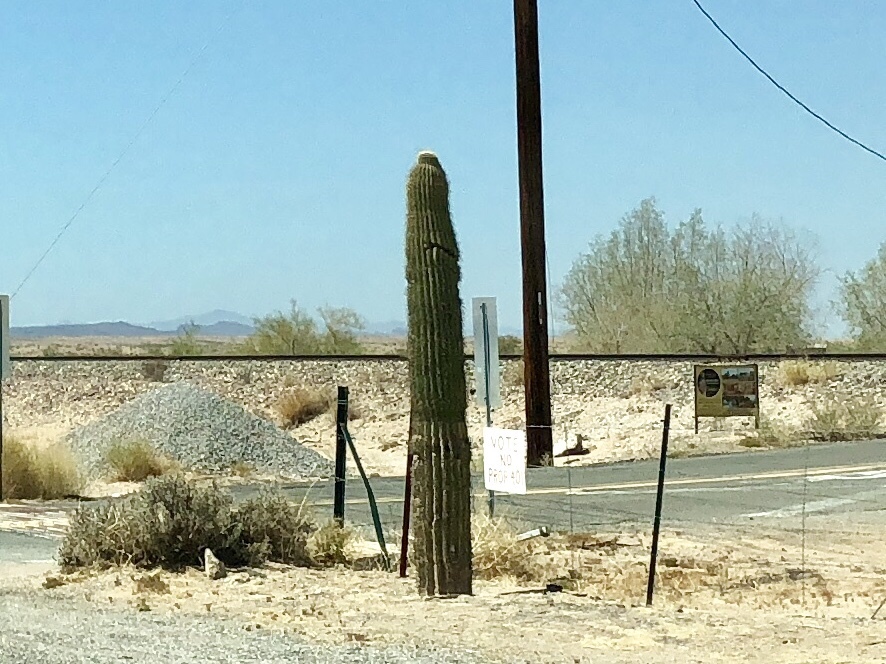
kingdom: Plantae
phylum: Tracheophyta
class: Magnoliopsida
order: Caryophyllales
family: Cactaceae
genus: Carnegiea
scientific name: Carnegiea gigantea
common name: Saguaro
